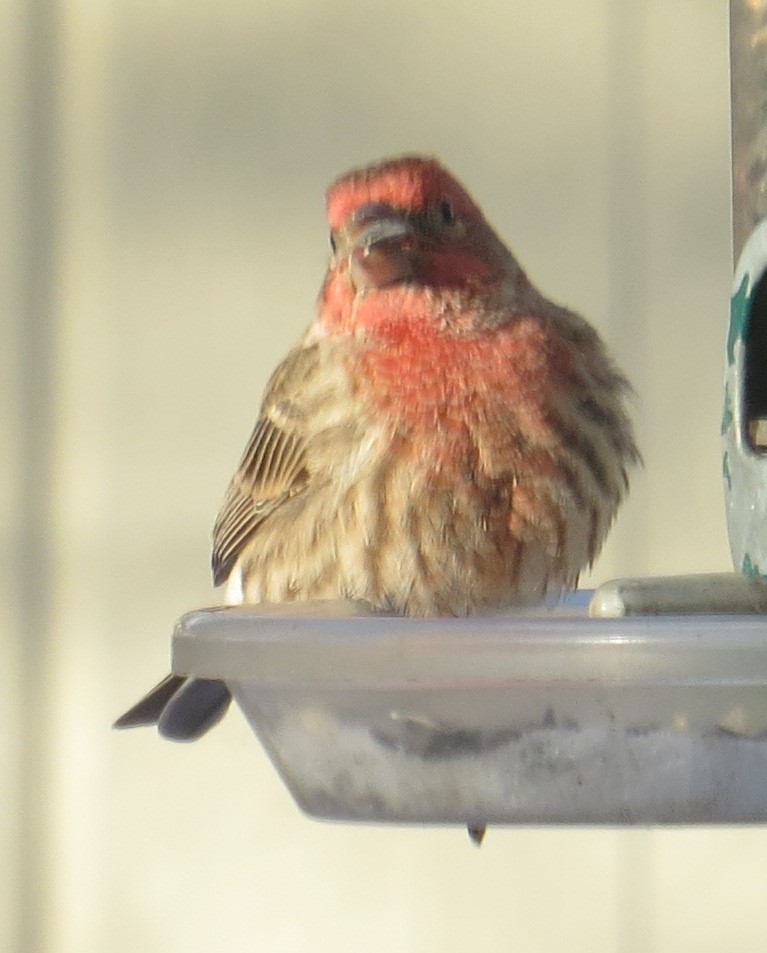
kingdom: Animalia
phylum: Chordata
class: Aves
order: Passeriformes
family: Fringillidae
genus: Haemorhous
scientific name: Haemorhous mexicanus
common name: House finch
